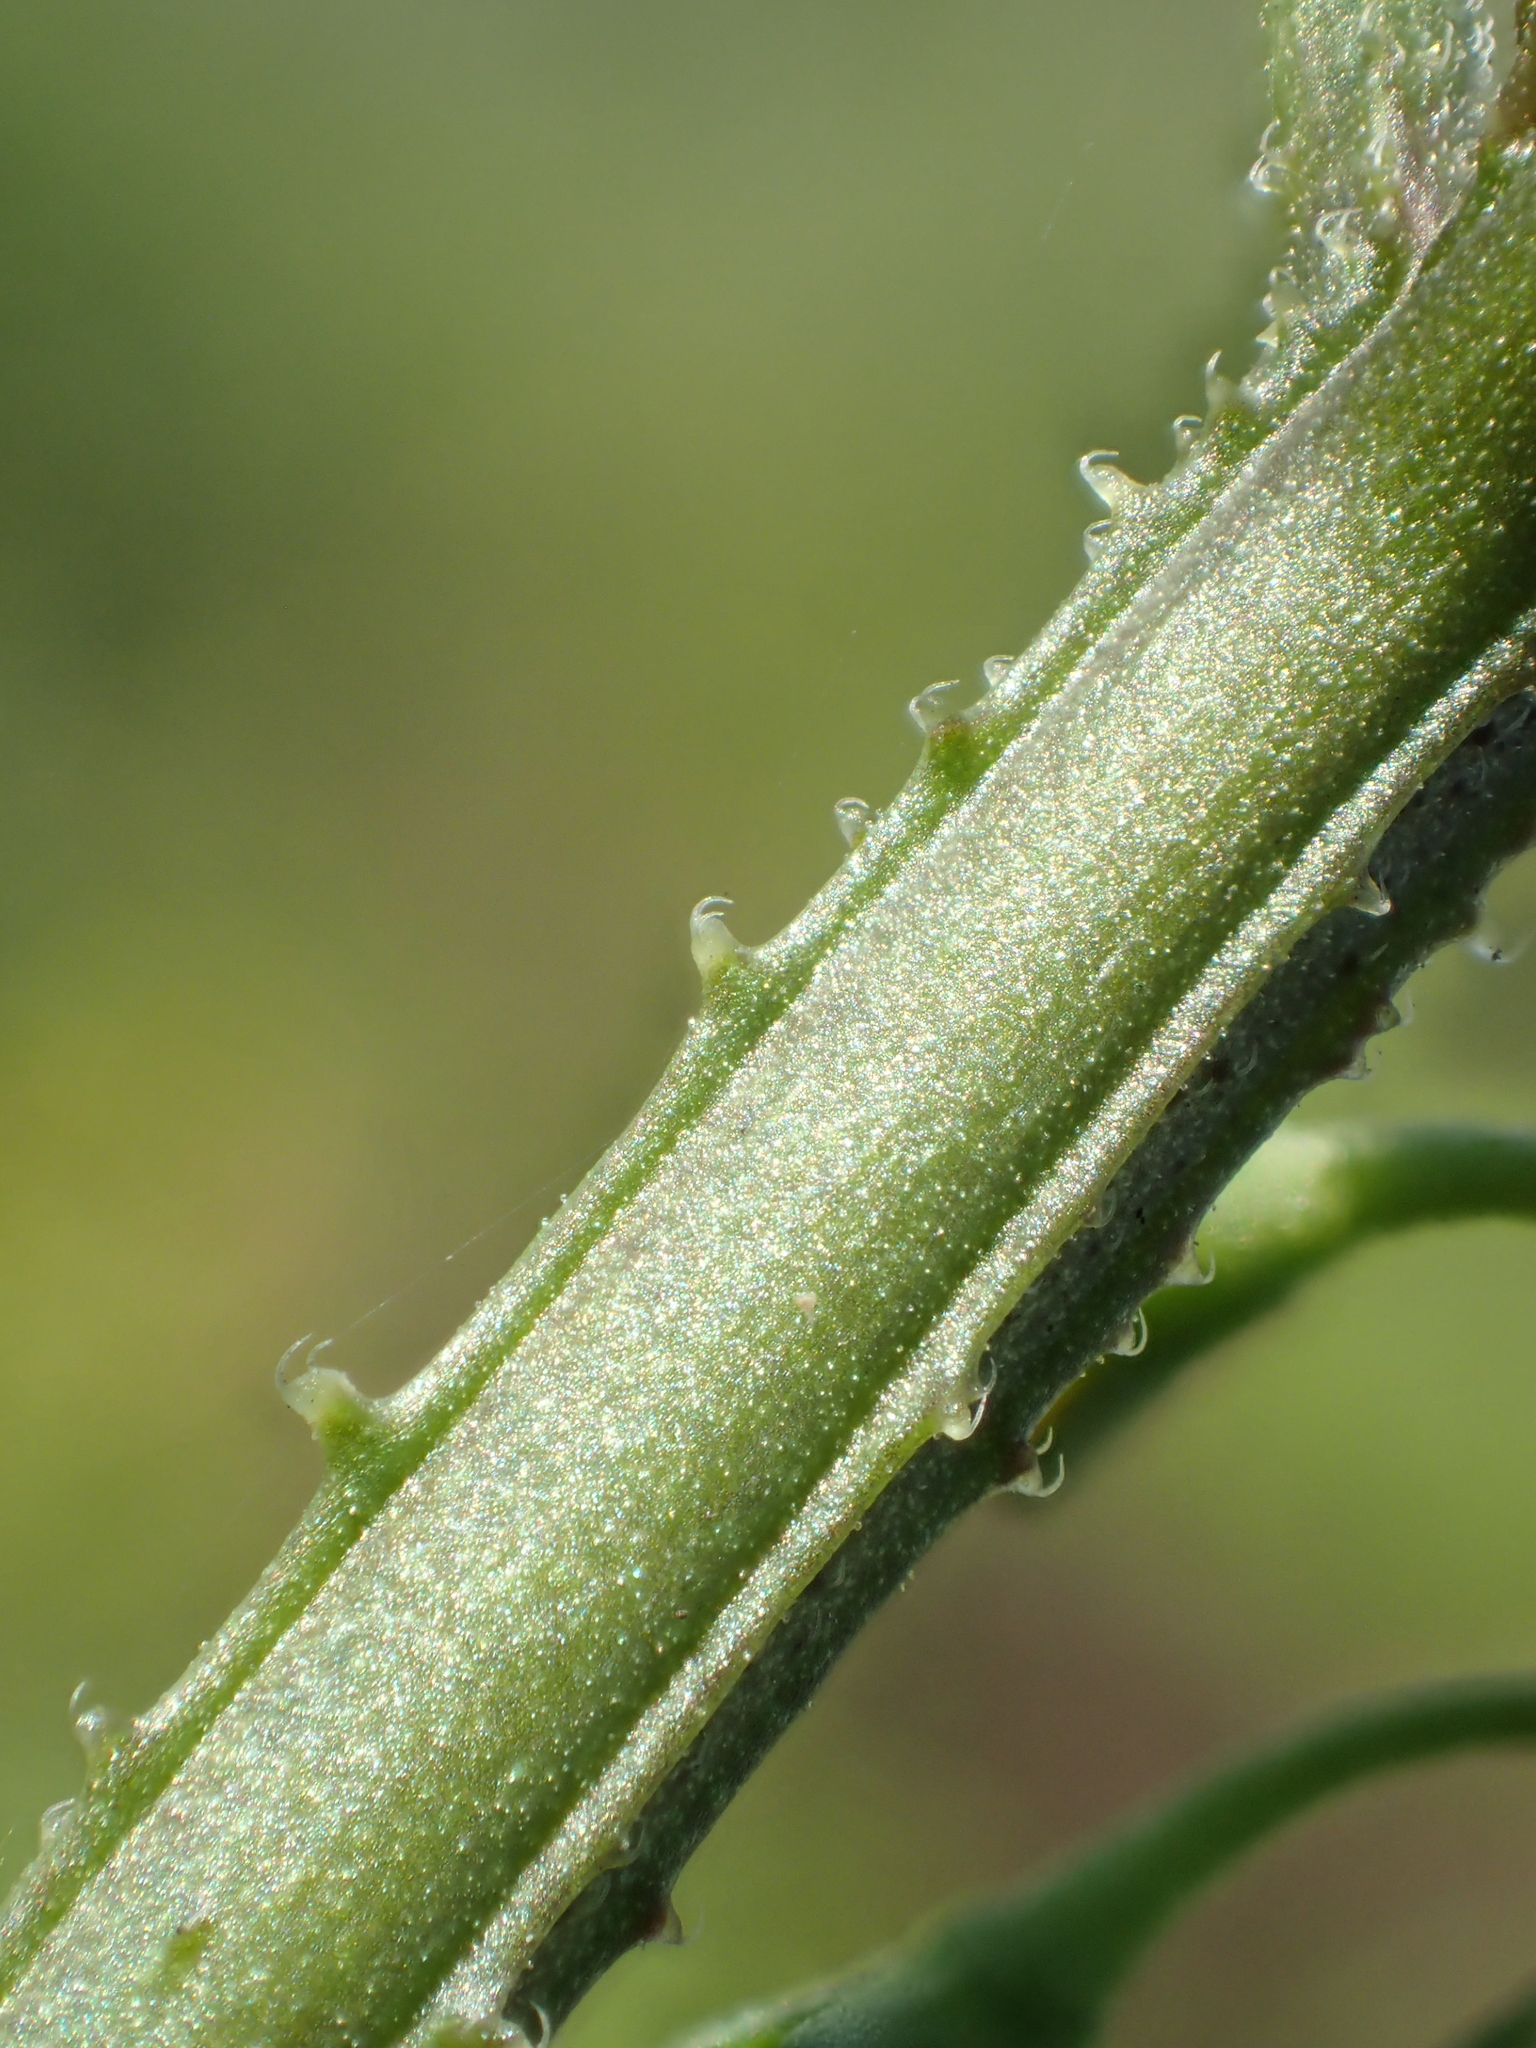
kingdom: Plantae
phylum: Tracheophyta
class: Magnoliopsida
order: Solanales
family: Solanaceae
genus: Solanum
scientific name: Solanum nigrum
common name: Black nightshade
